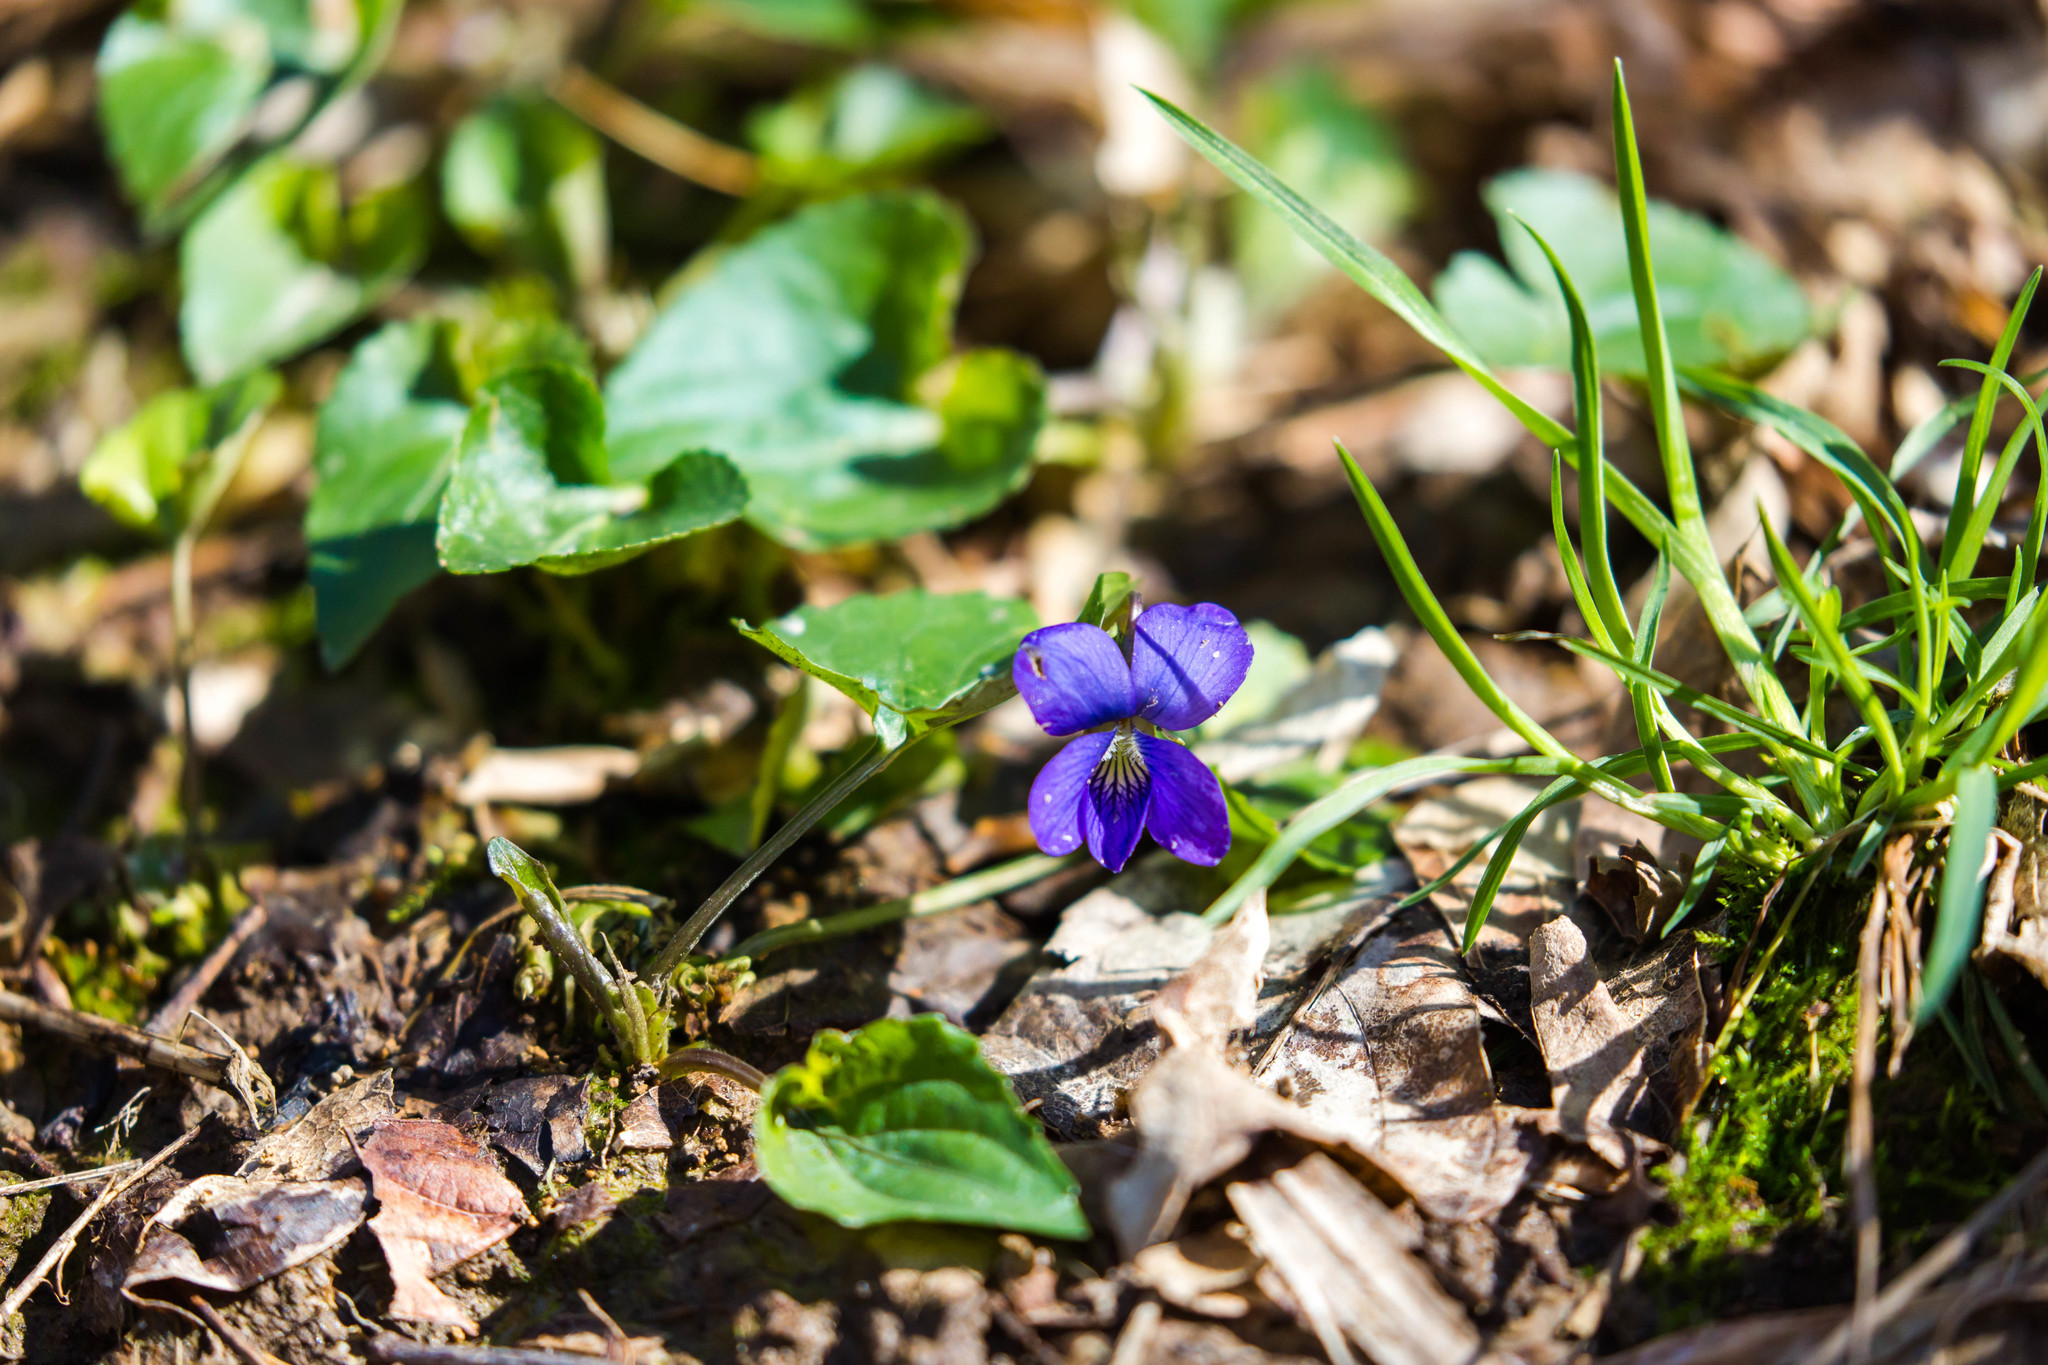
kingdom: Plantae
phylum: Tracheophyta
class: Magnoliopsida
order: Malpighiales
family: Violaceae
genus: Viola
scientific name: Viola sororia
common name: Dooryard violet
